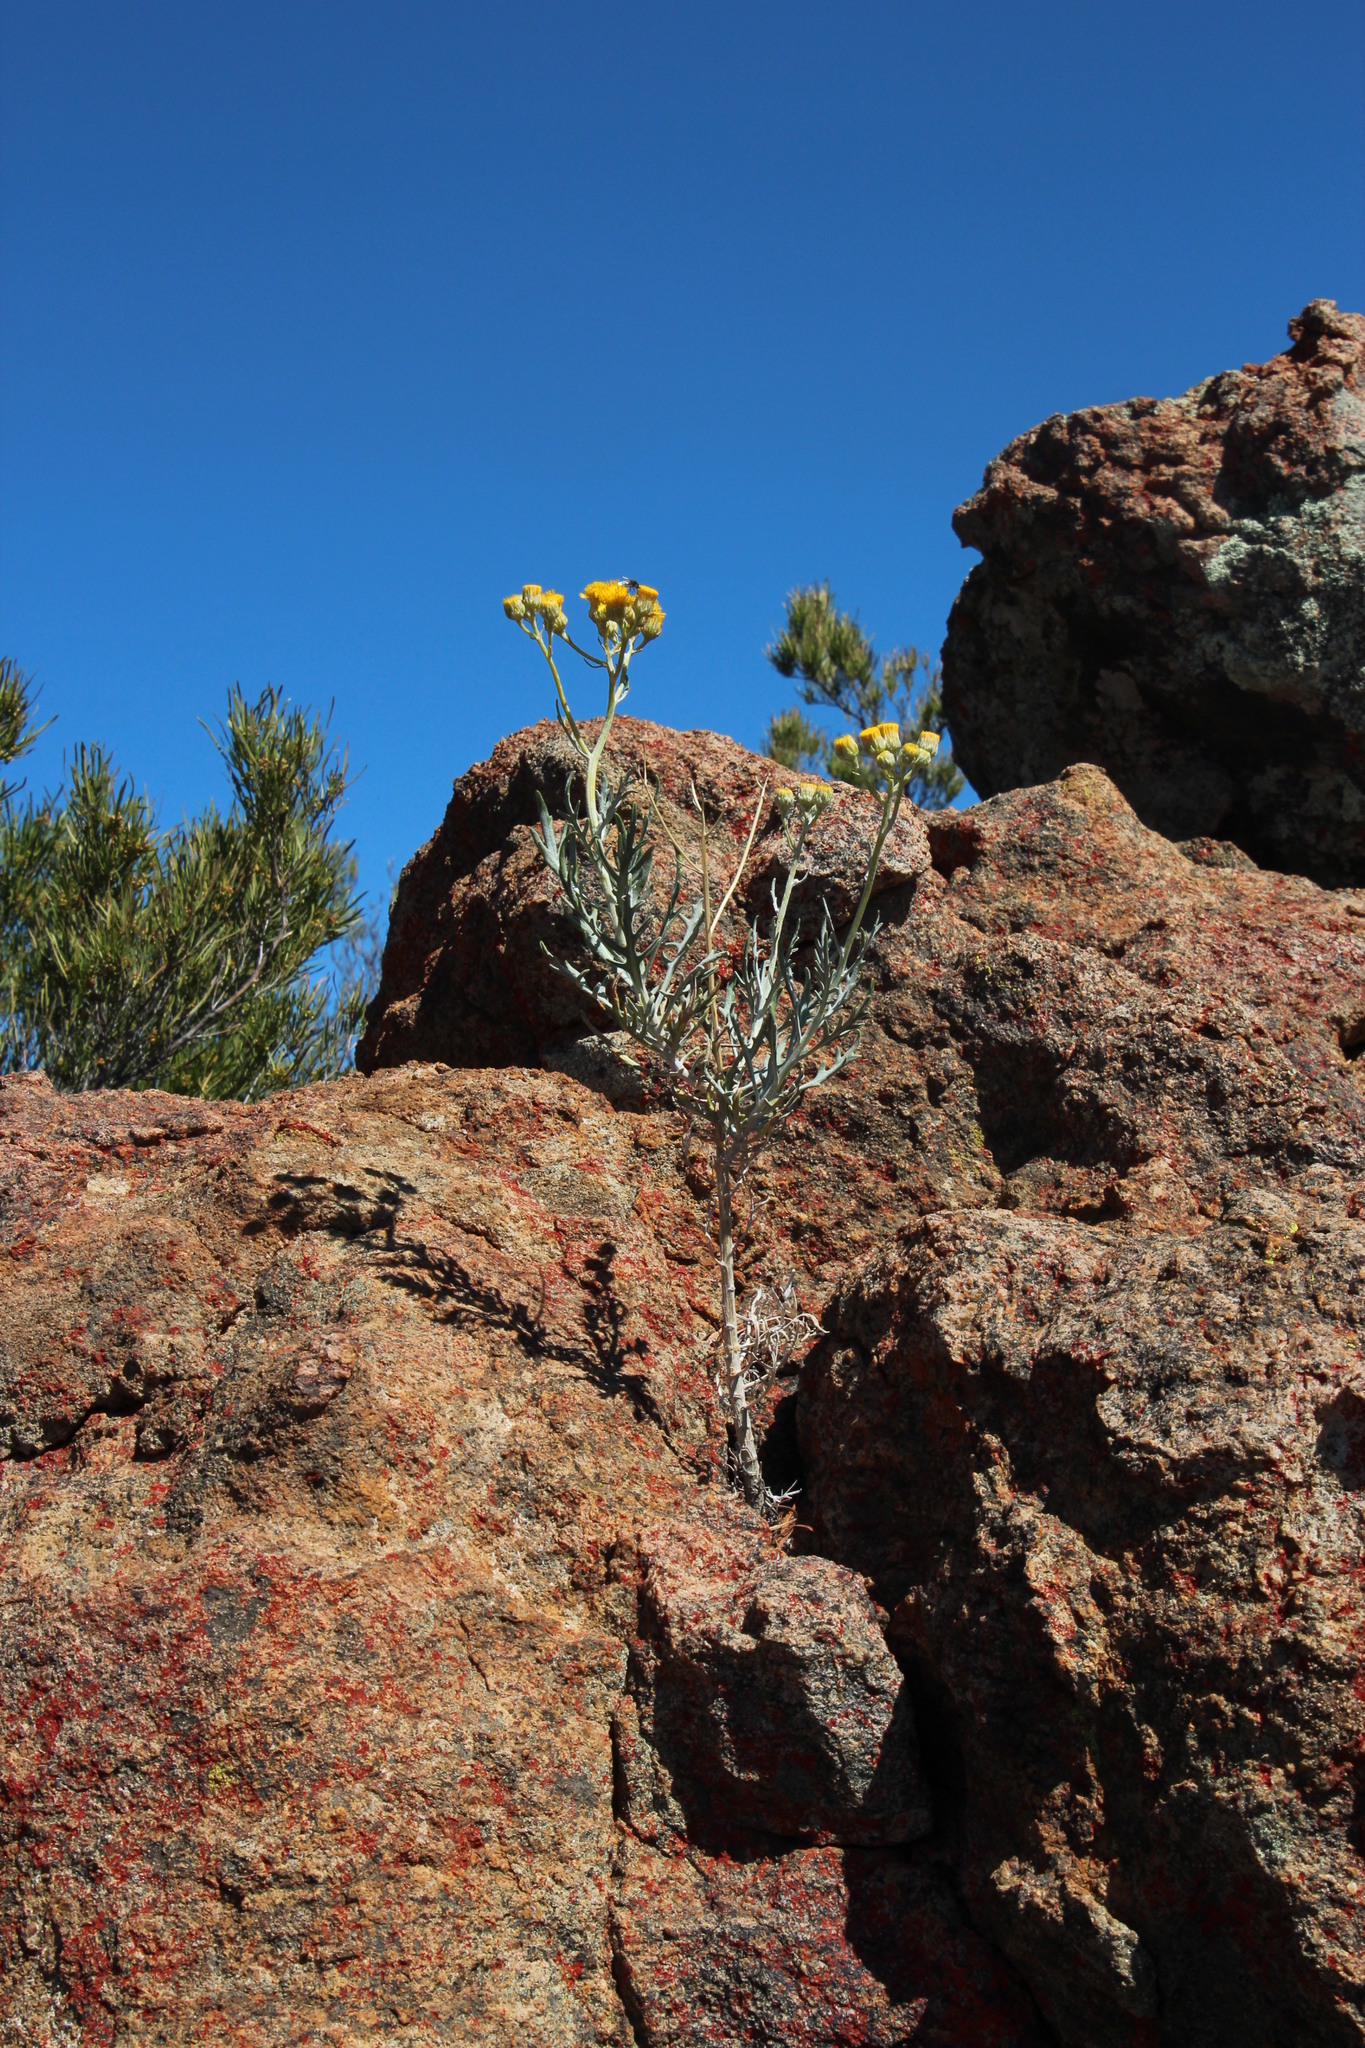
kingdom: Plantae
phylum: Tracheophyta
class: Magnoliopsida
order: Asterales
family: Asteraceae
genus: Senecio
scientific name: Senecio cinerascens
